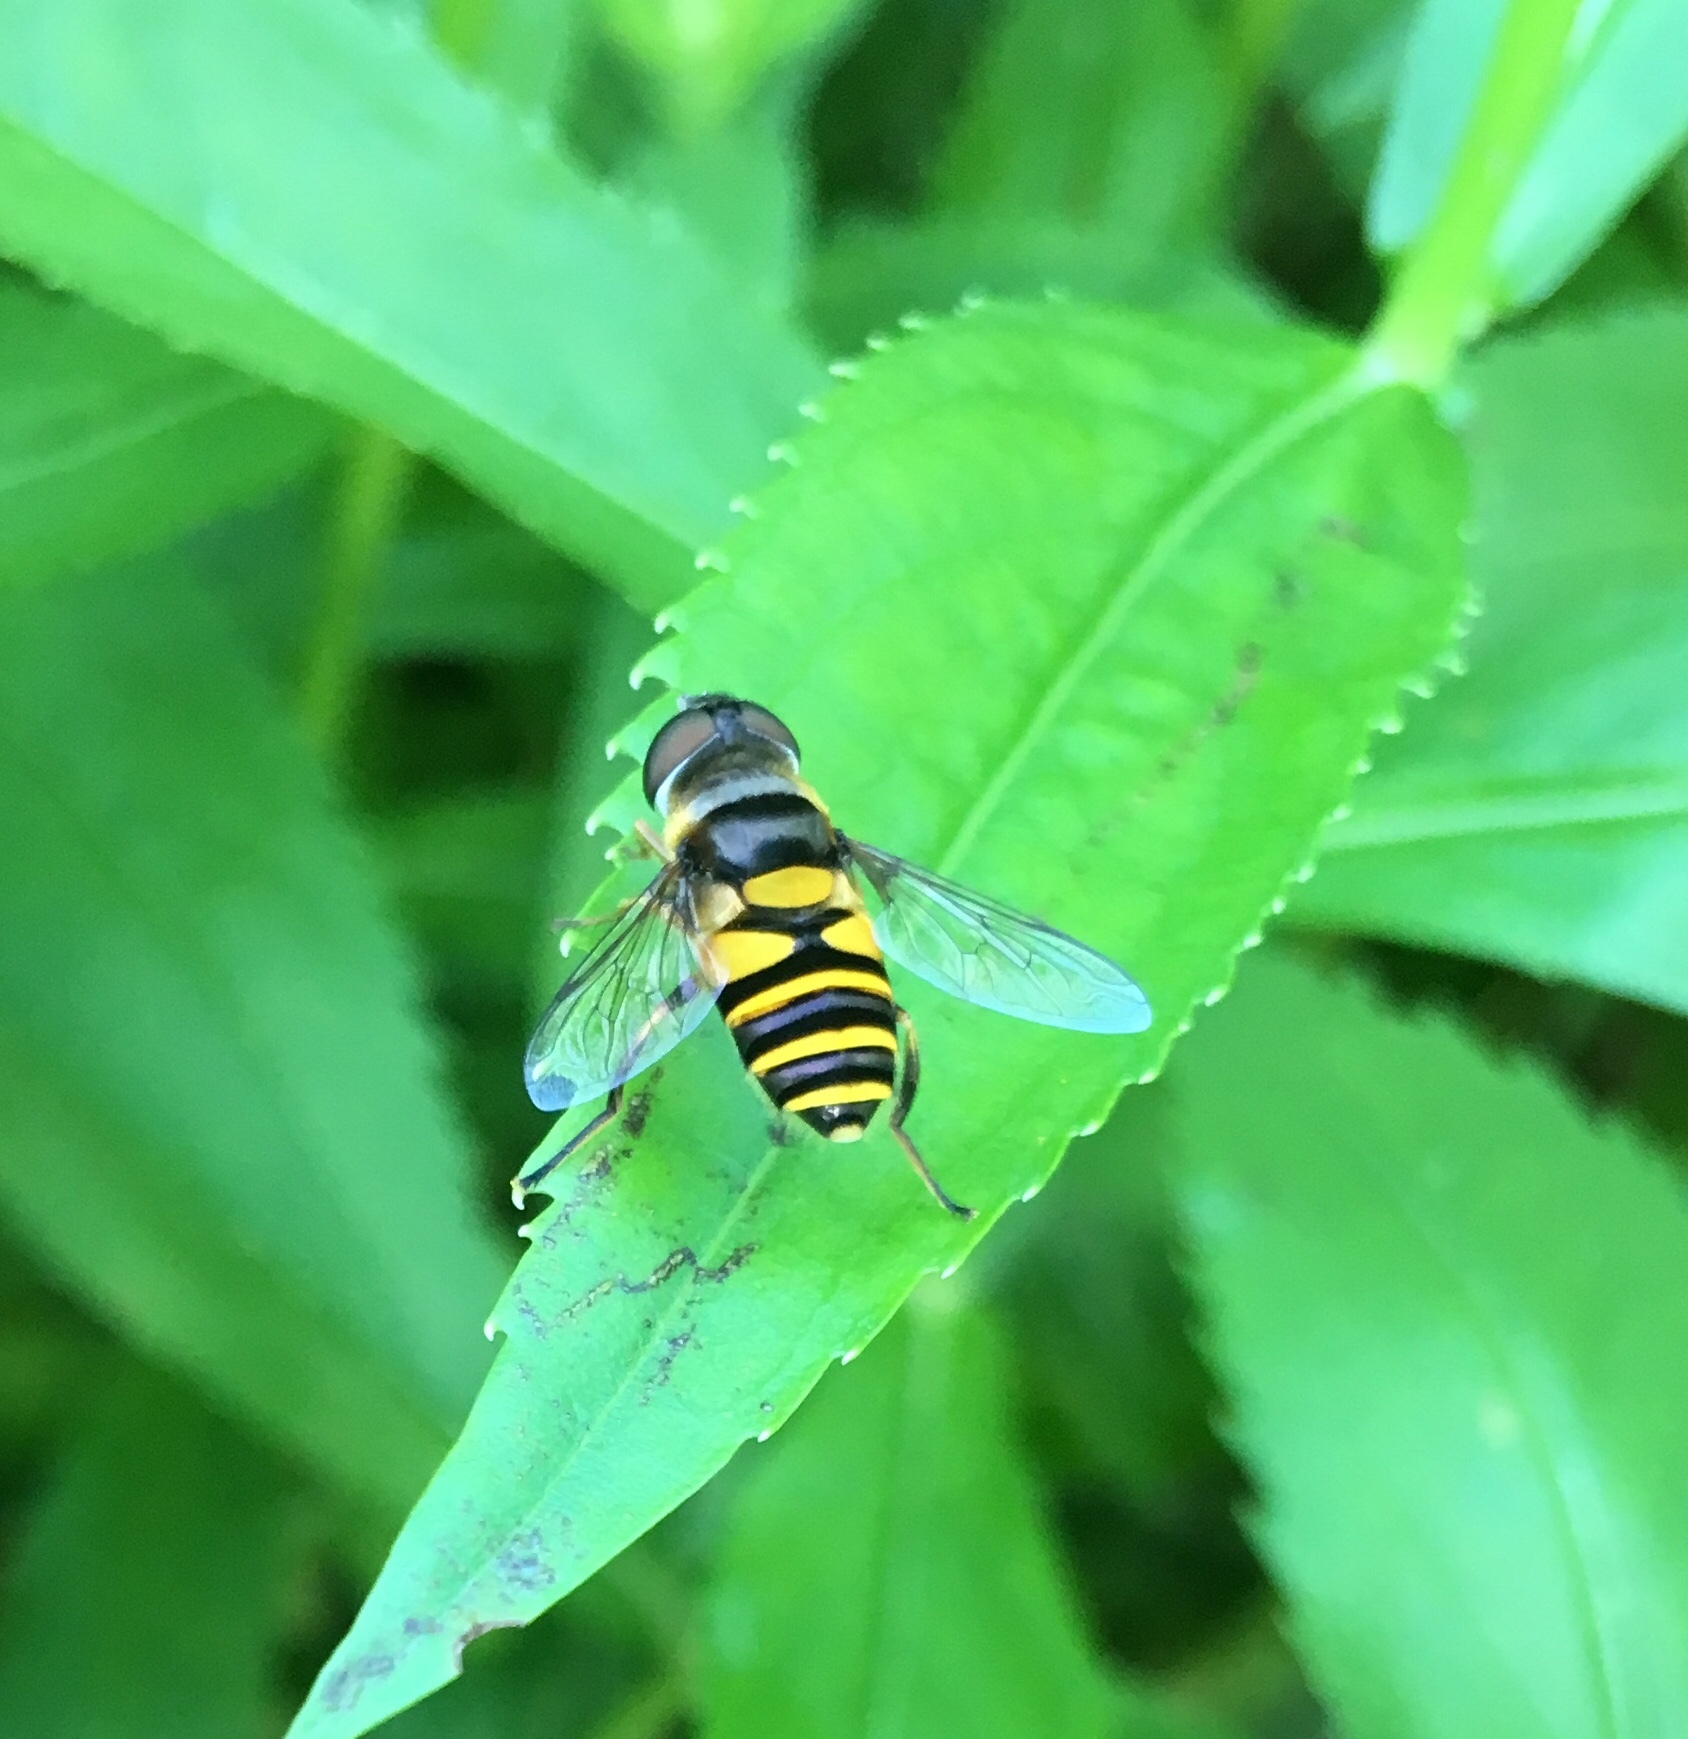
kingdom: Animalia
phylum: Arthropoda
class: Insecta
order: Diptera
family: Syrphidae
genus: Eristalis
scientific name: Eristalis transversa
